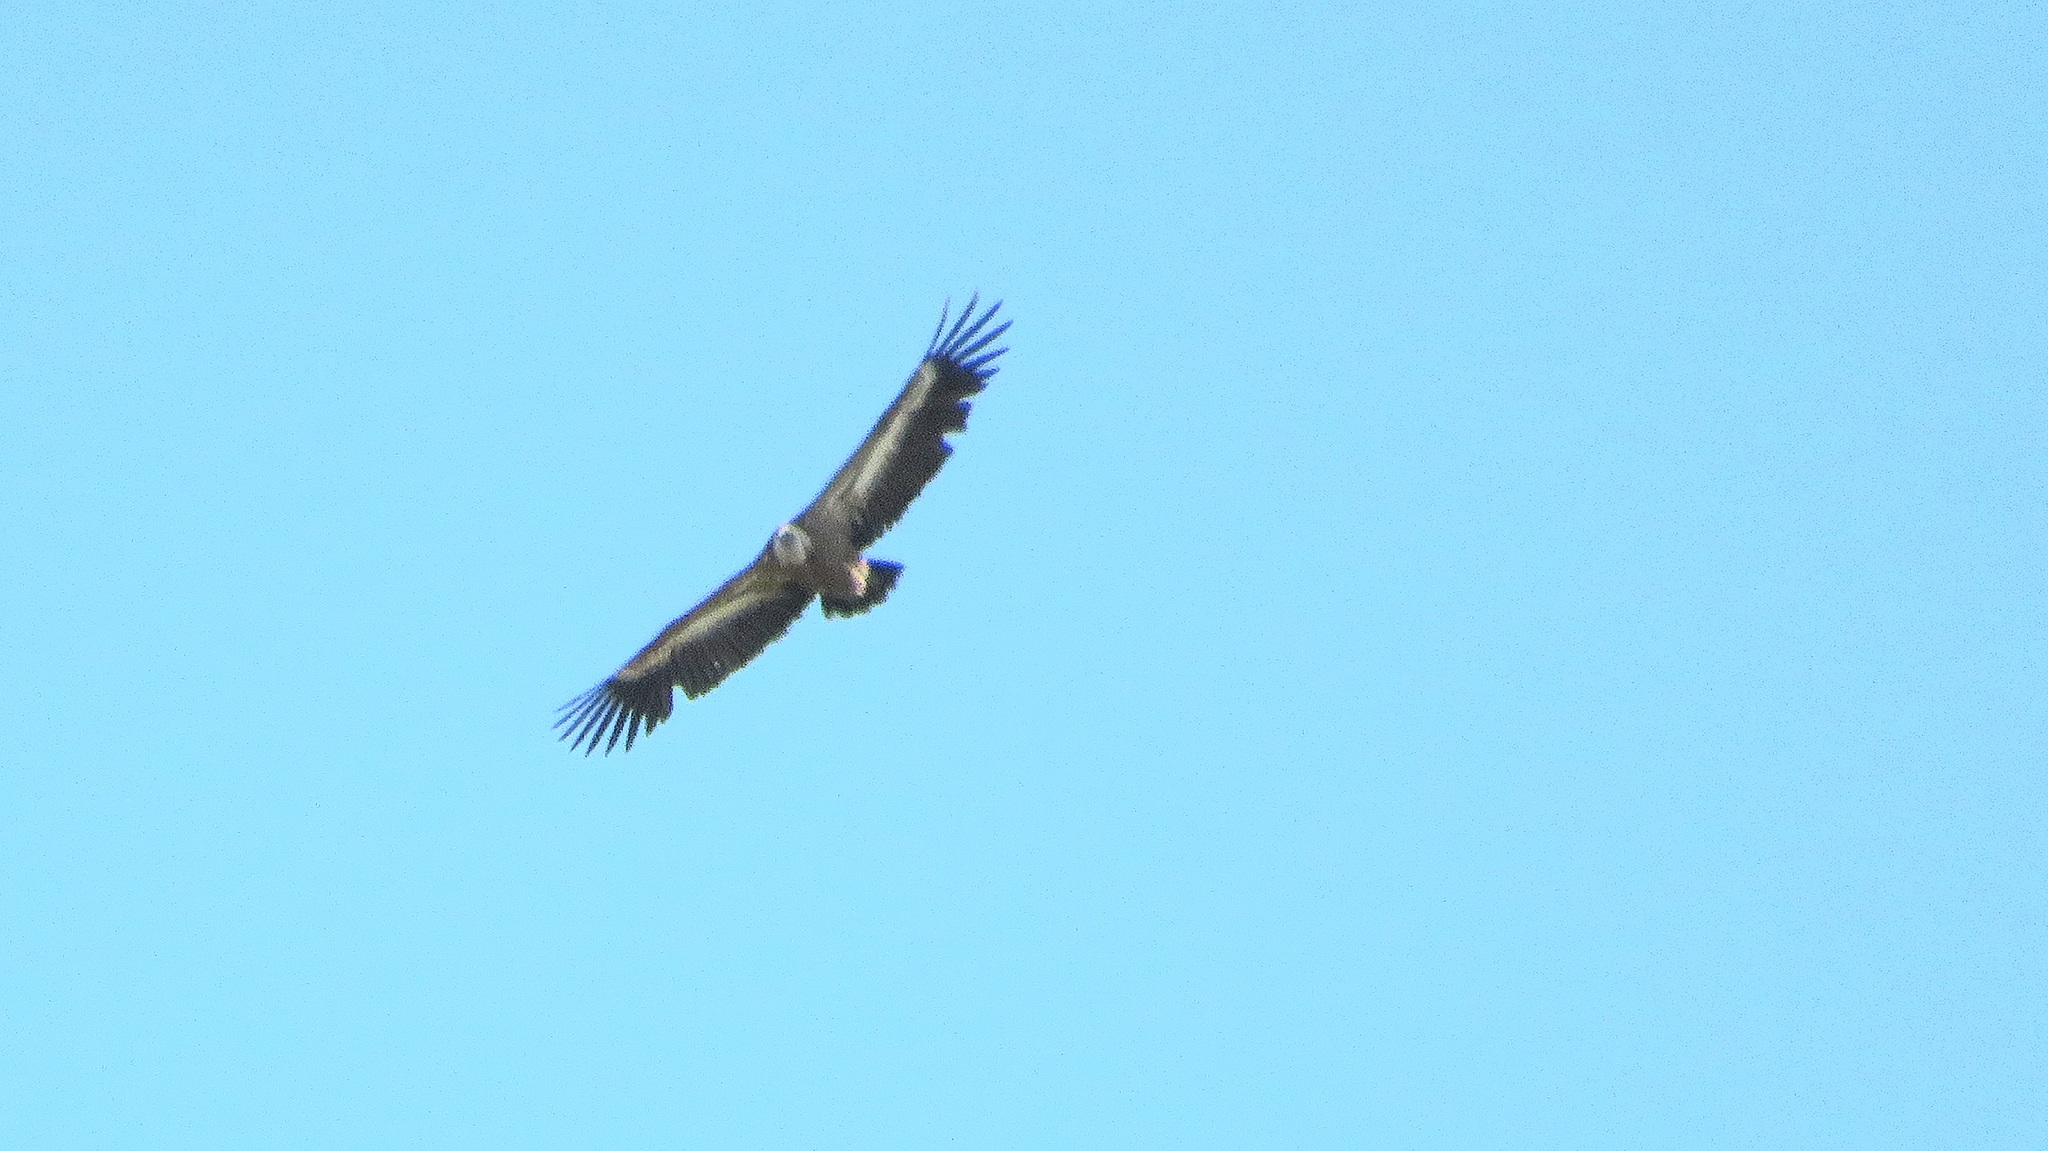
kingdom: Animalia
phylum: Chordata
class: Aves
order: Accipitriformes
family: Accipitridae
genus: Gyps
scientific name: Gyps fulvus
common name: Griffon vulture
